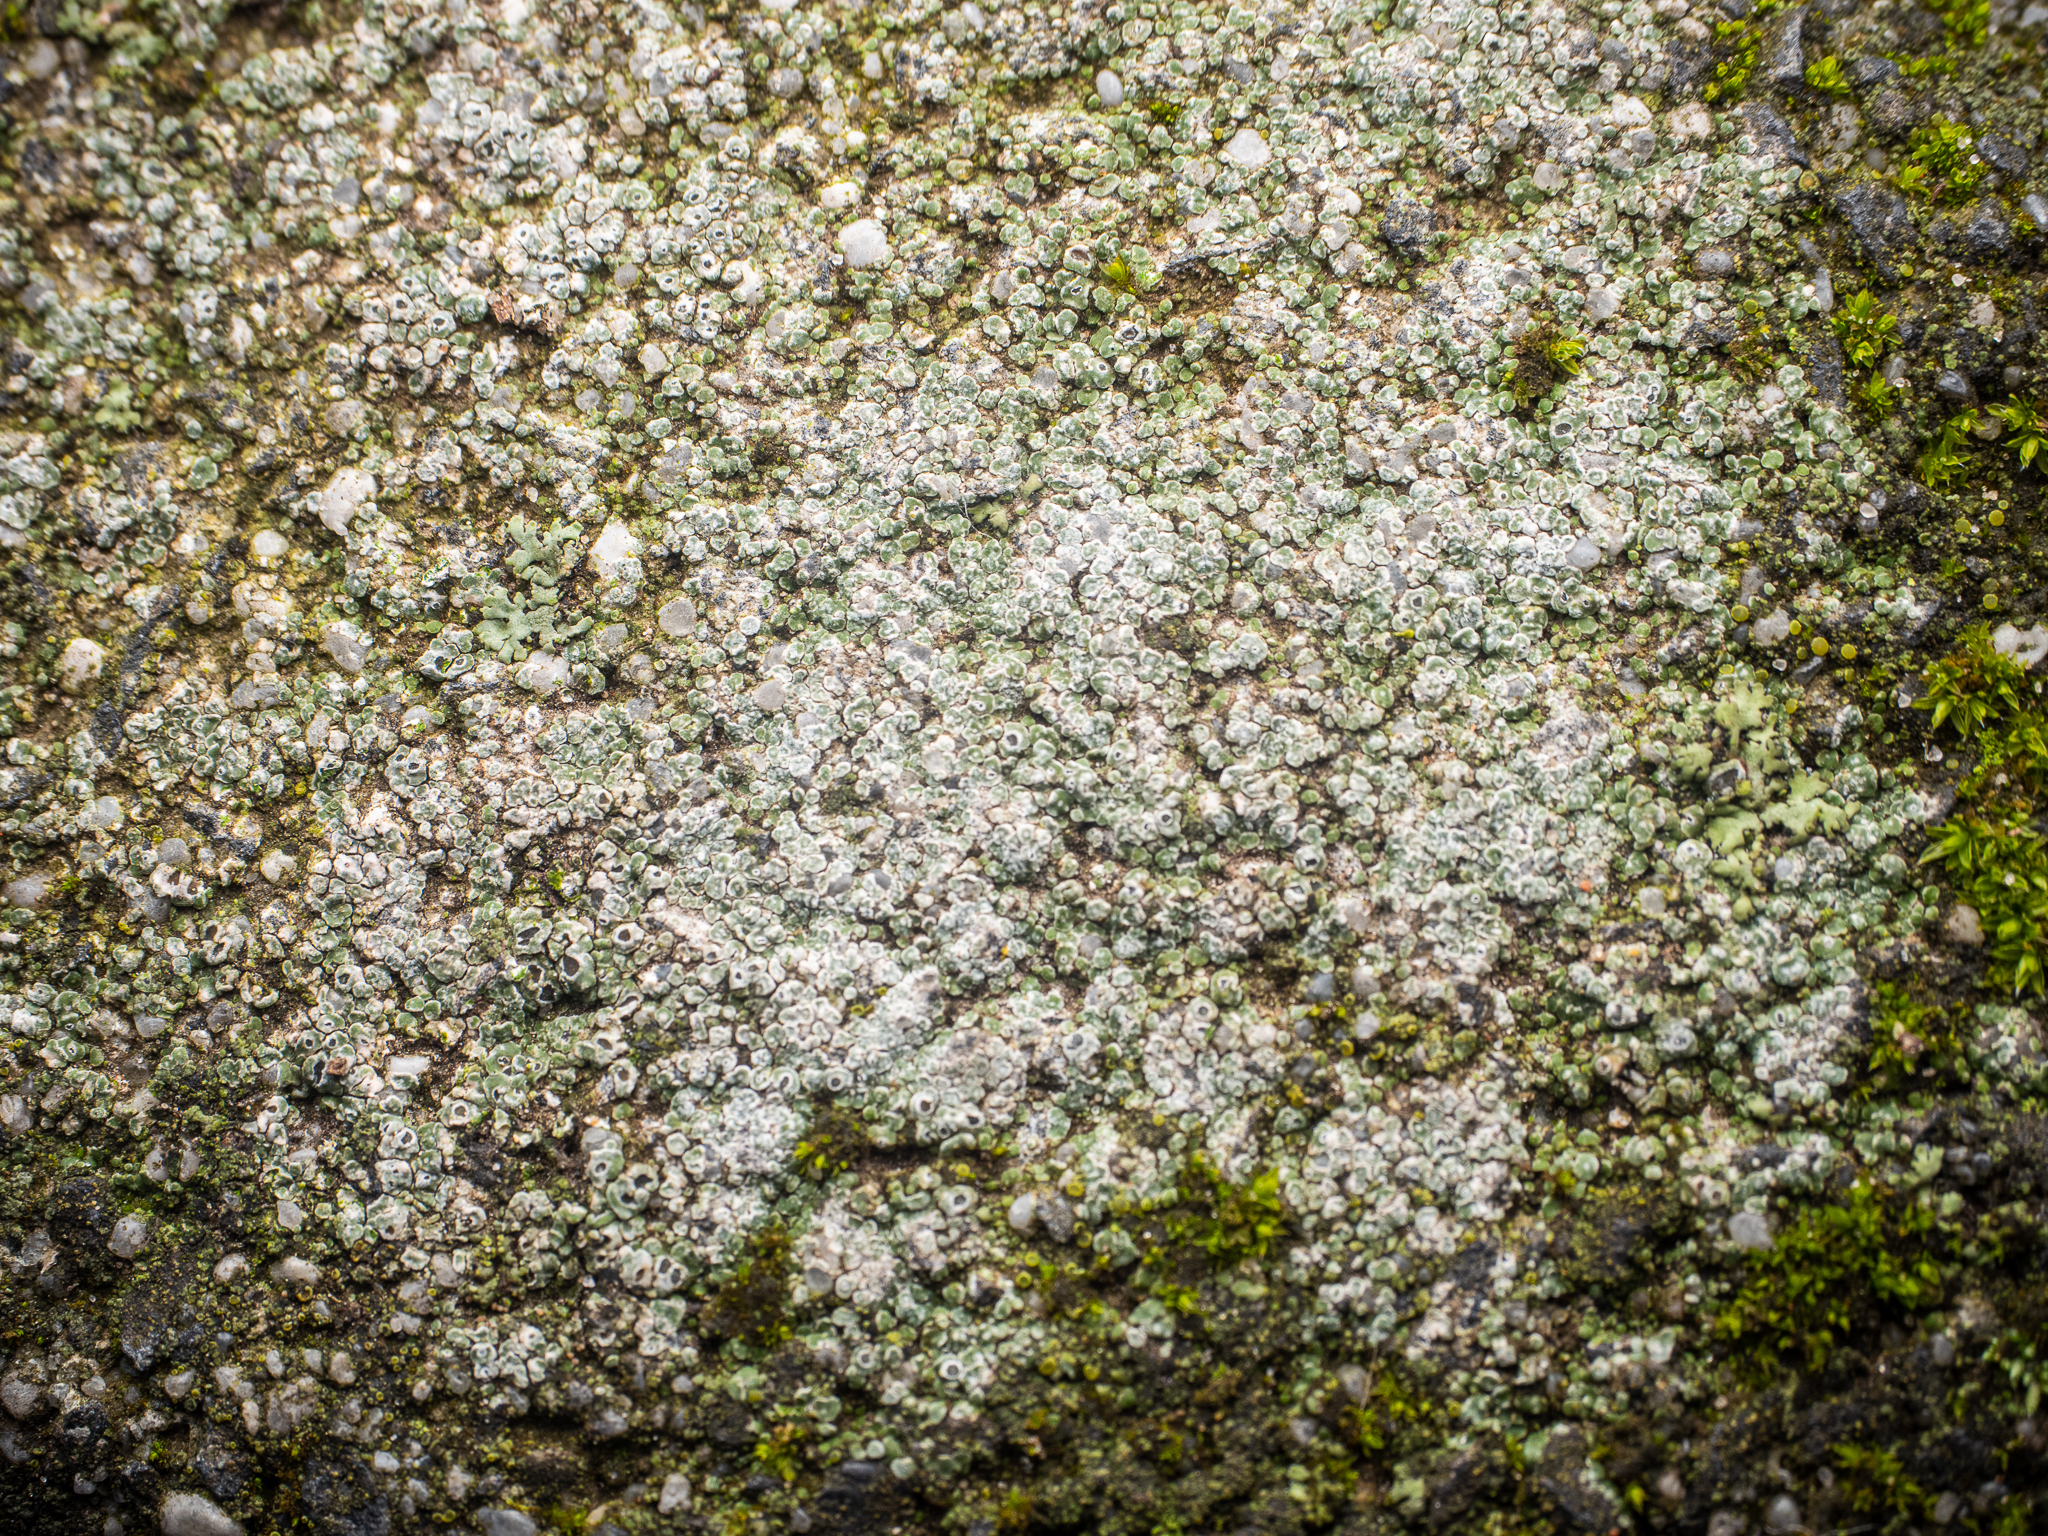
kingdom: Fungi
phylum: Ascomycota
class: Lecanoromycetes
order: Pertusariales
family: Megasporaceae
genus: Circinaria
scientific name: Circinaria contorta
